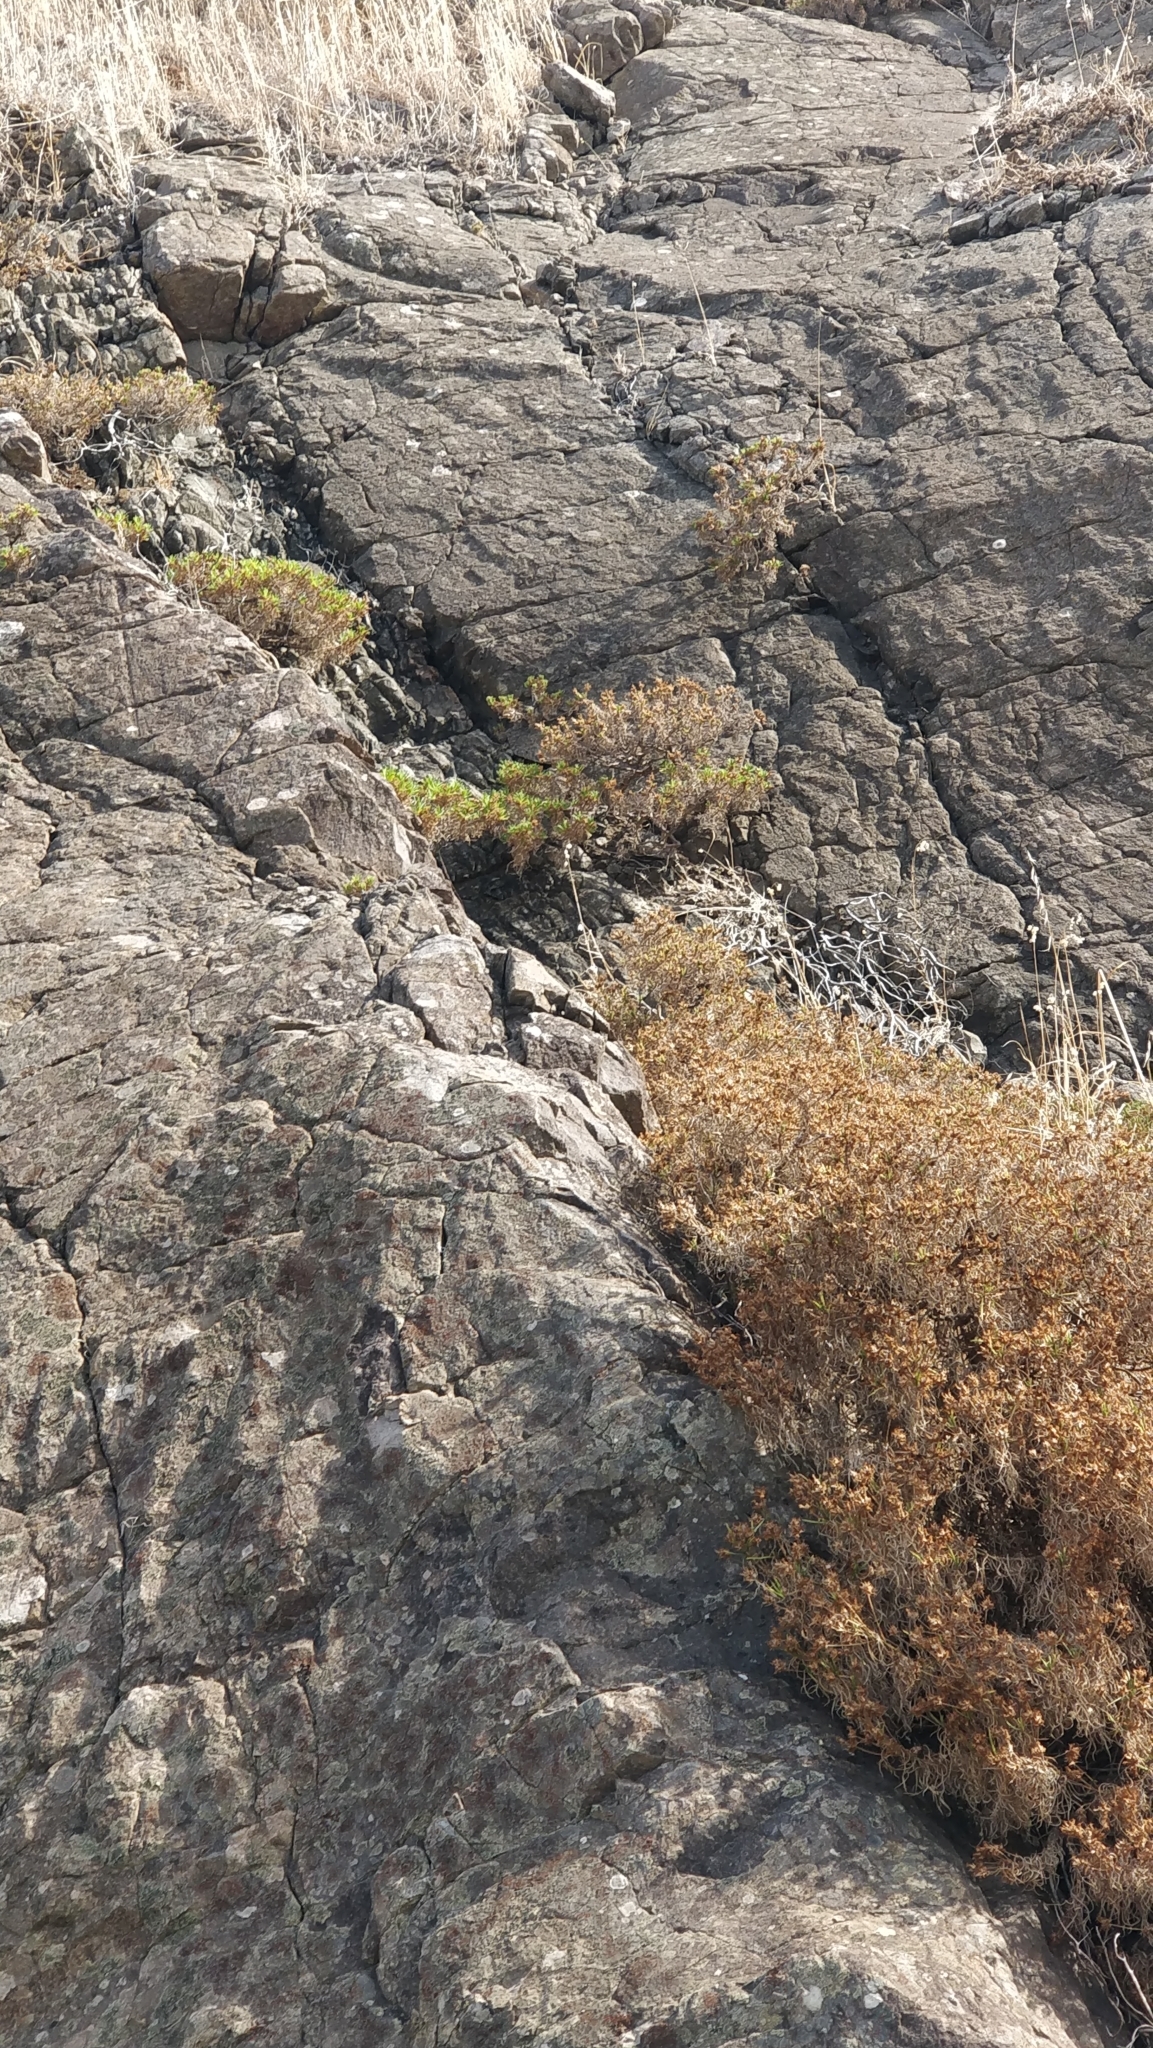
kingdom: Plantae
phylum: Tracheophyta
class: Magnoliopsida
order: Lamiales
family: Plantaginaceae
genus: Plantago
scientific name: Plantago arborescens
